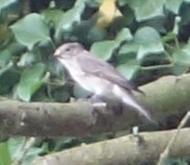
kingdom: Animalia
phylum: Chordata
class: Aves
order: Passeriformes
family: Muscicapidae
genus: Muscicapa
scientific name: Muscicapa striata
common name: Spotted flycatcher
